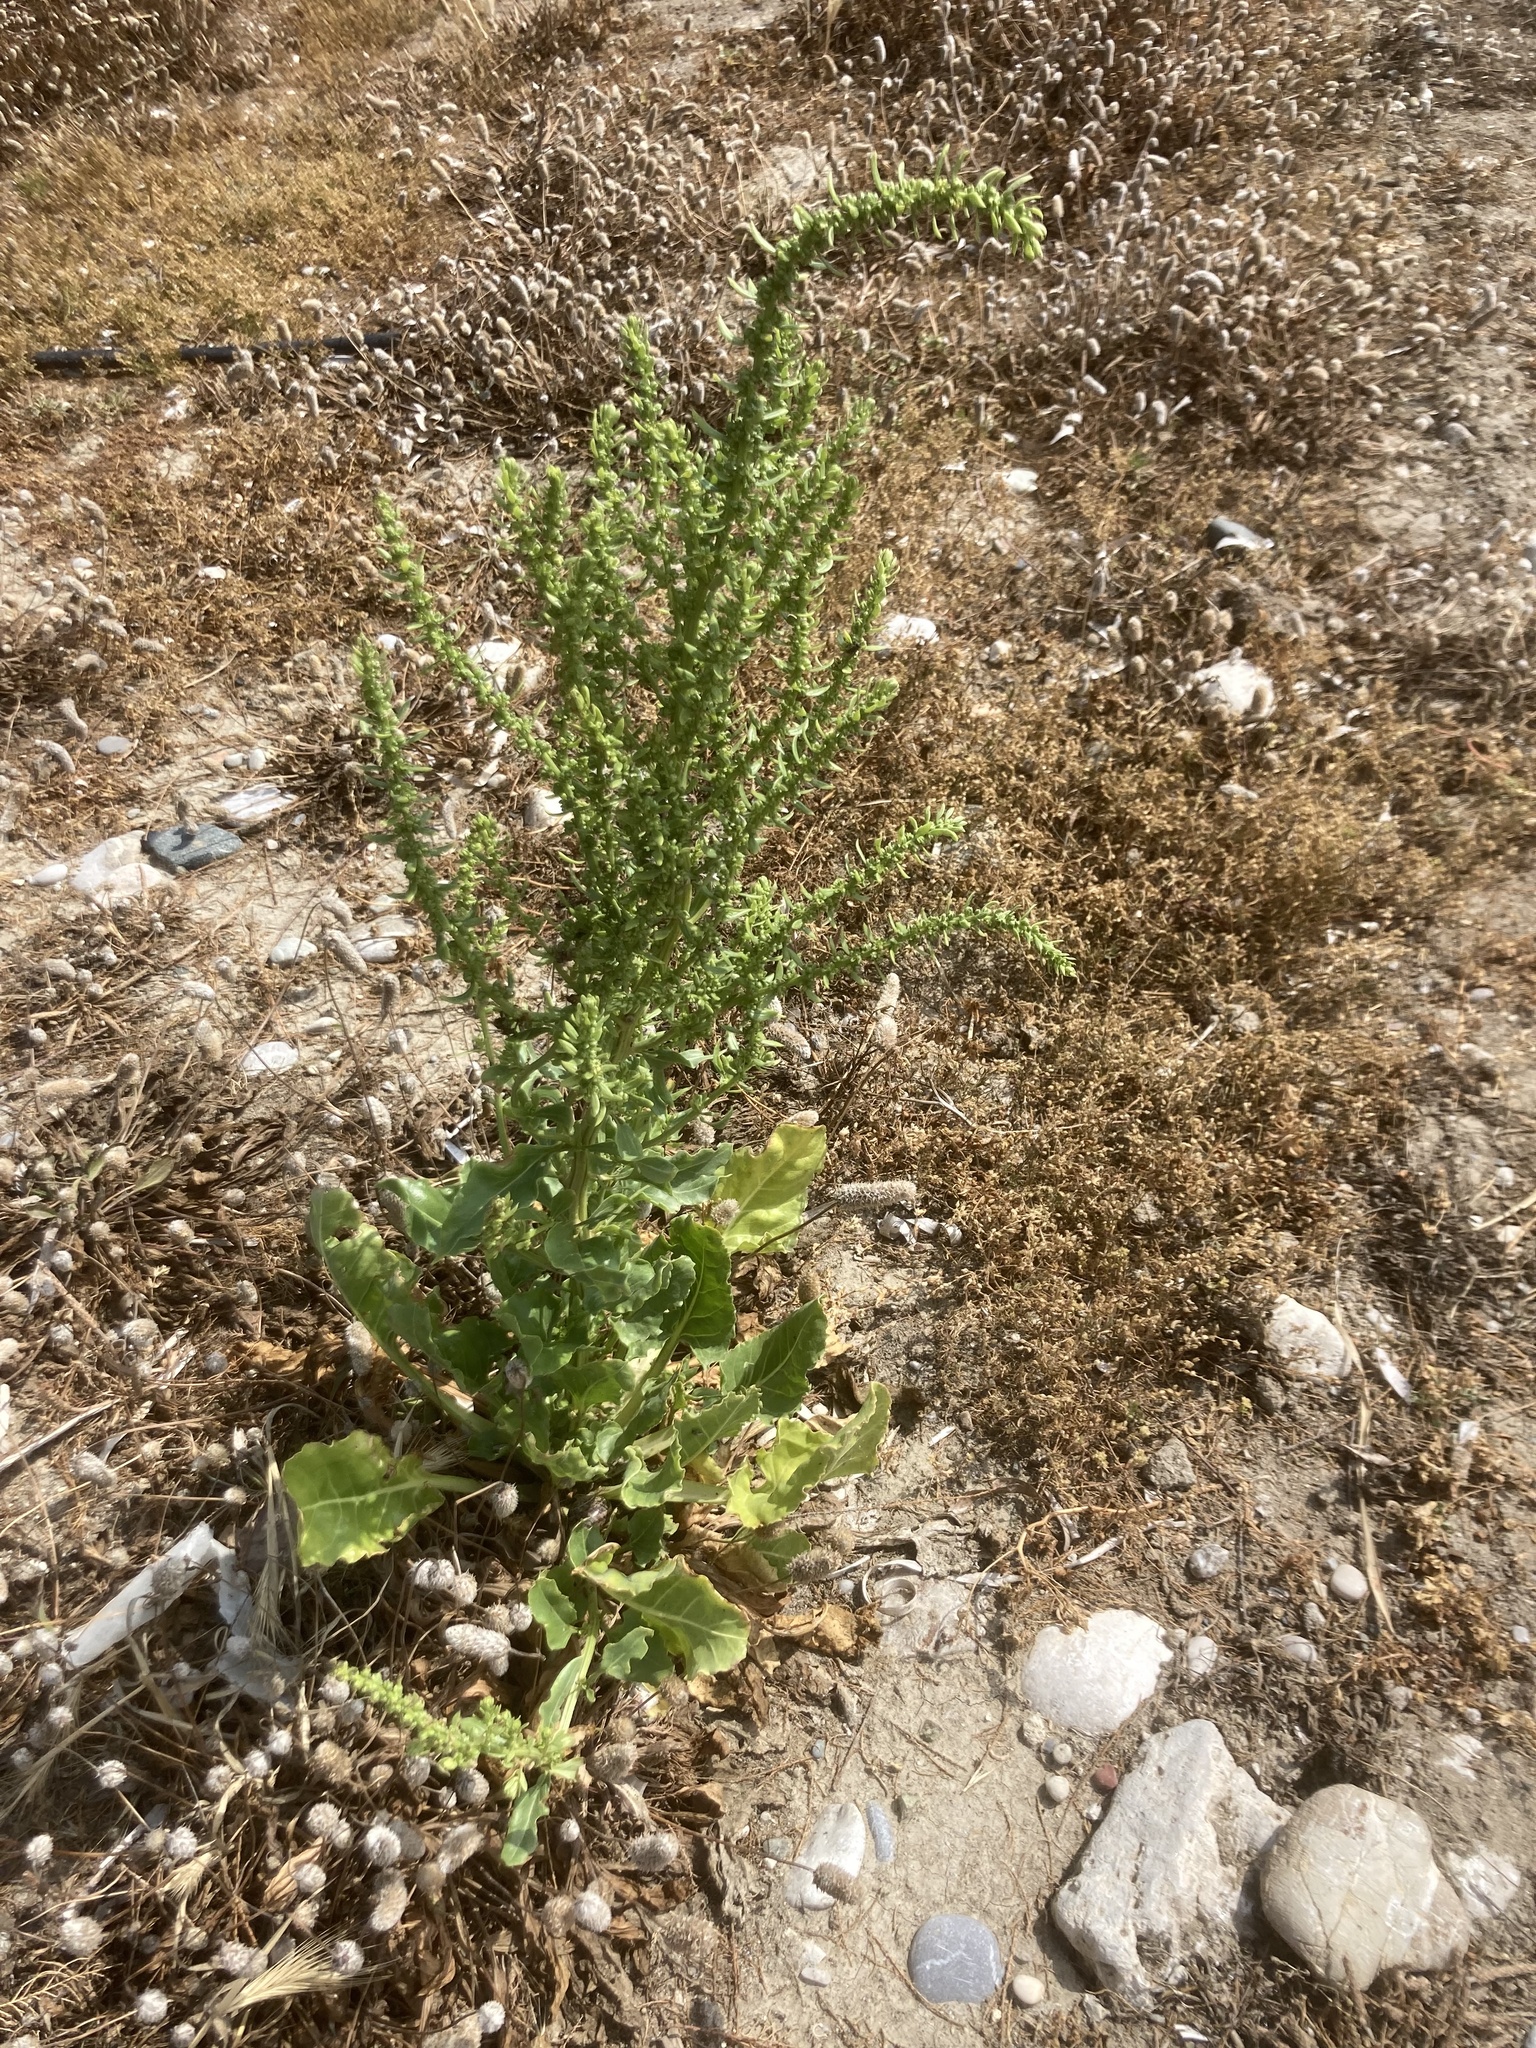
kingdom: Plantae
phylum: Tracheophyta
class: Magnoliopsida
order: Caryophyllales
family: Amaranthaceae
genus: Beta
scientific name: Beta vulgaris
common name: Beet
